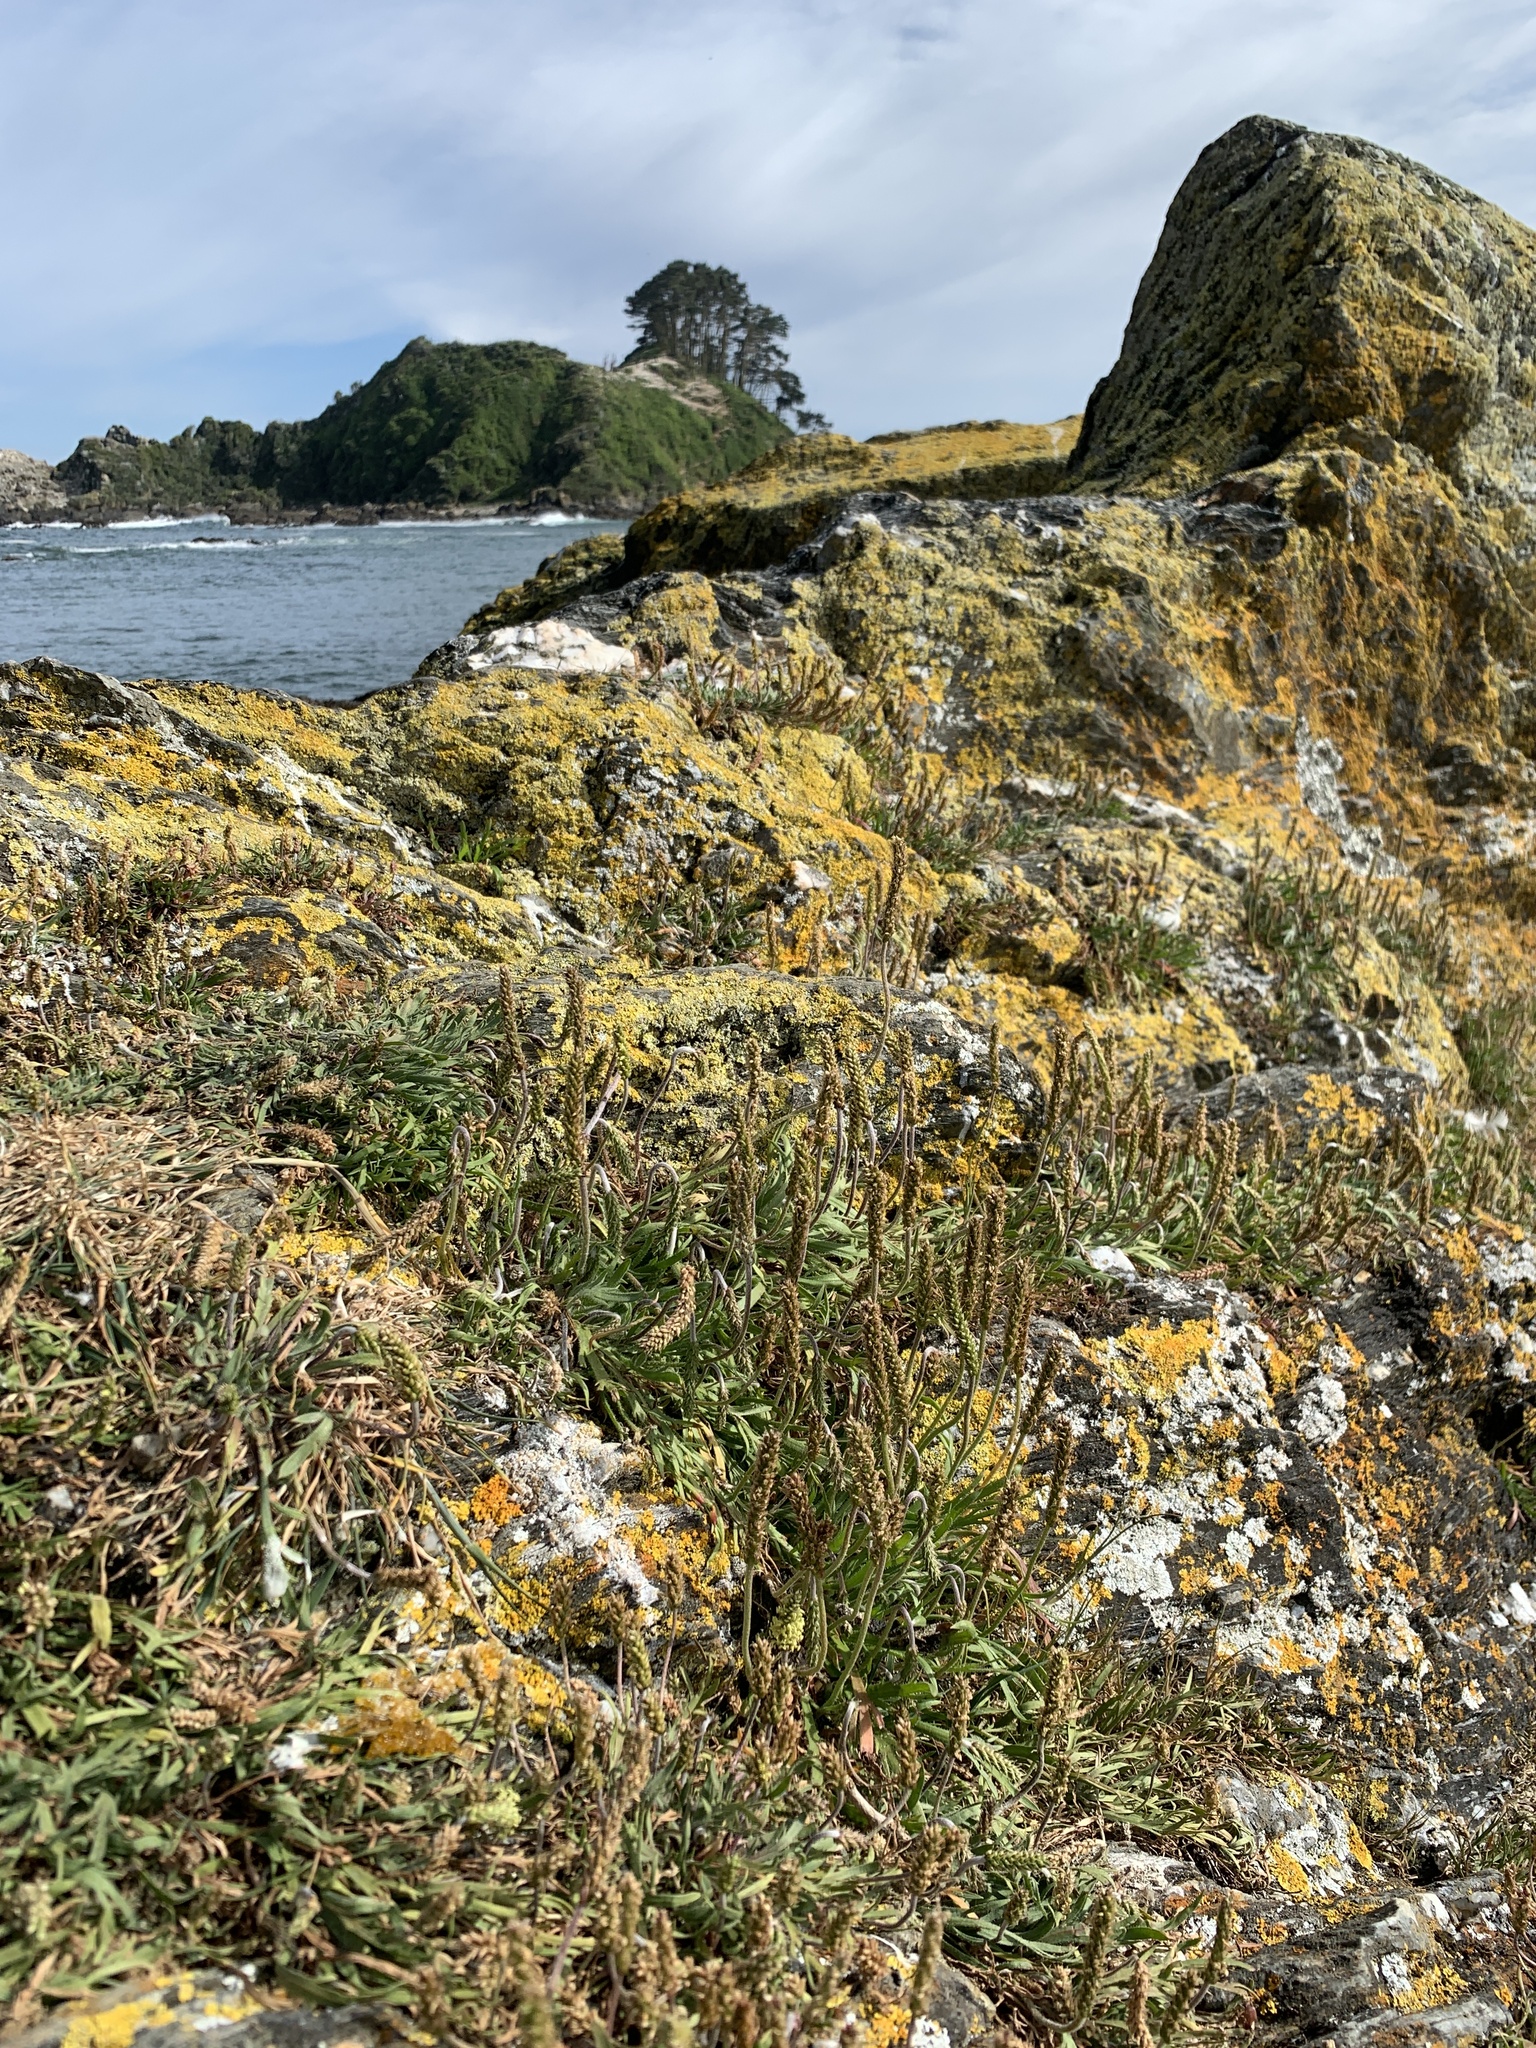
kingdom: Plantae
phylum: Tracheophyta
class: Magnoliopsida
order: Lamiales
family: Plantaginaceae
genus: Plantago
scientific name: Plantago coronopus
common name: Buck's-horn plantain
